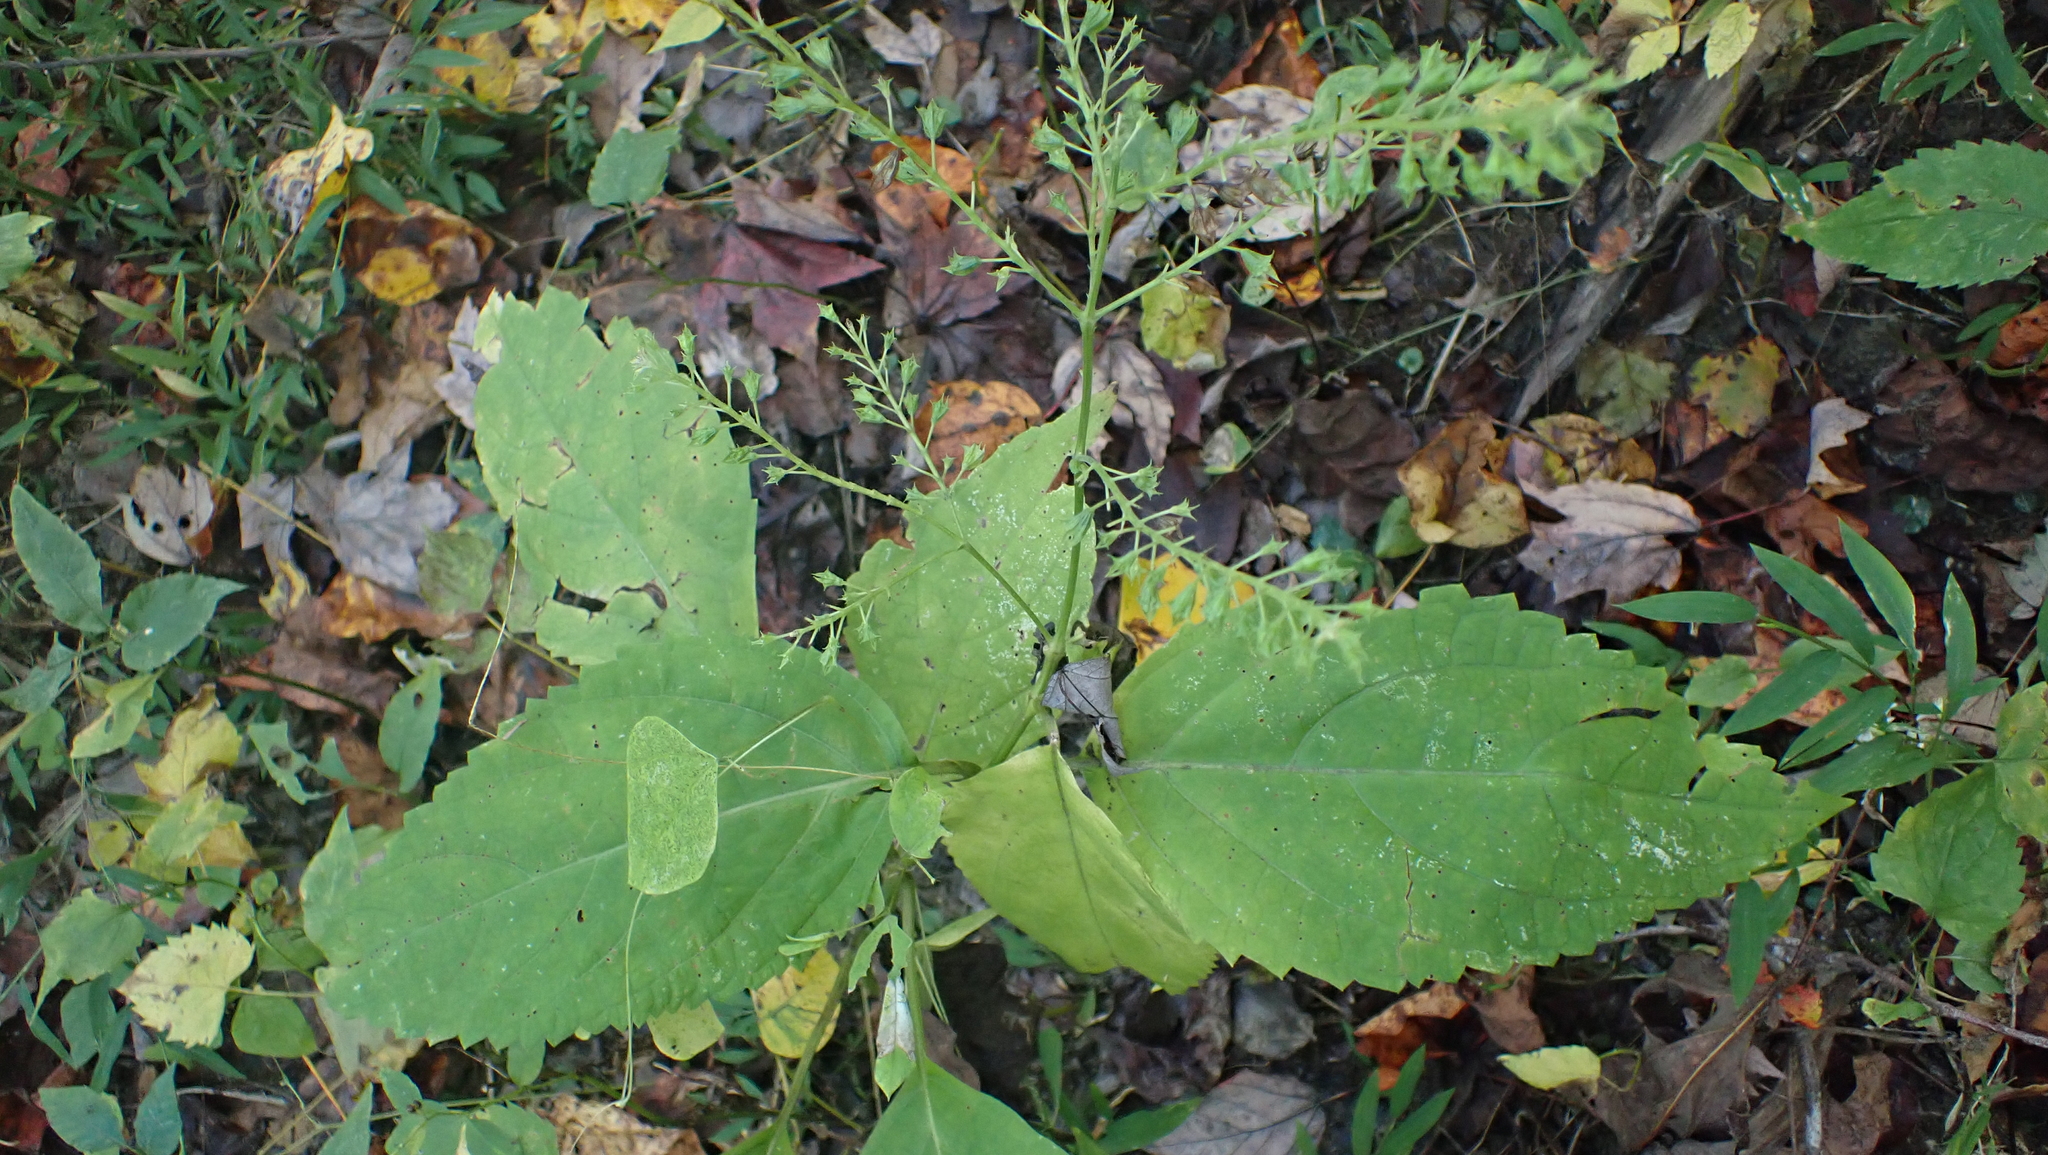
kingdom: Plantae
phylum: Tracheophyta
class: Magnoliopsida
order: Lamiales
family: Lamiaceae
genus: Collinsonia
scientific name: Collinsonia canadensis
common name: Northern horsebalm
